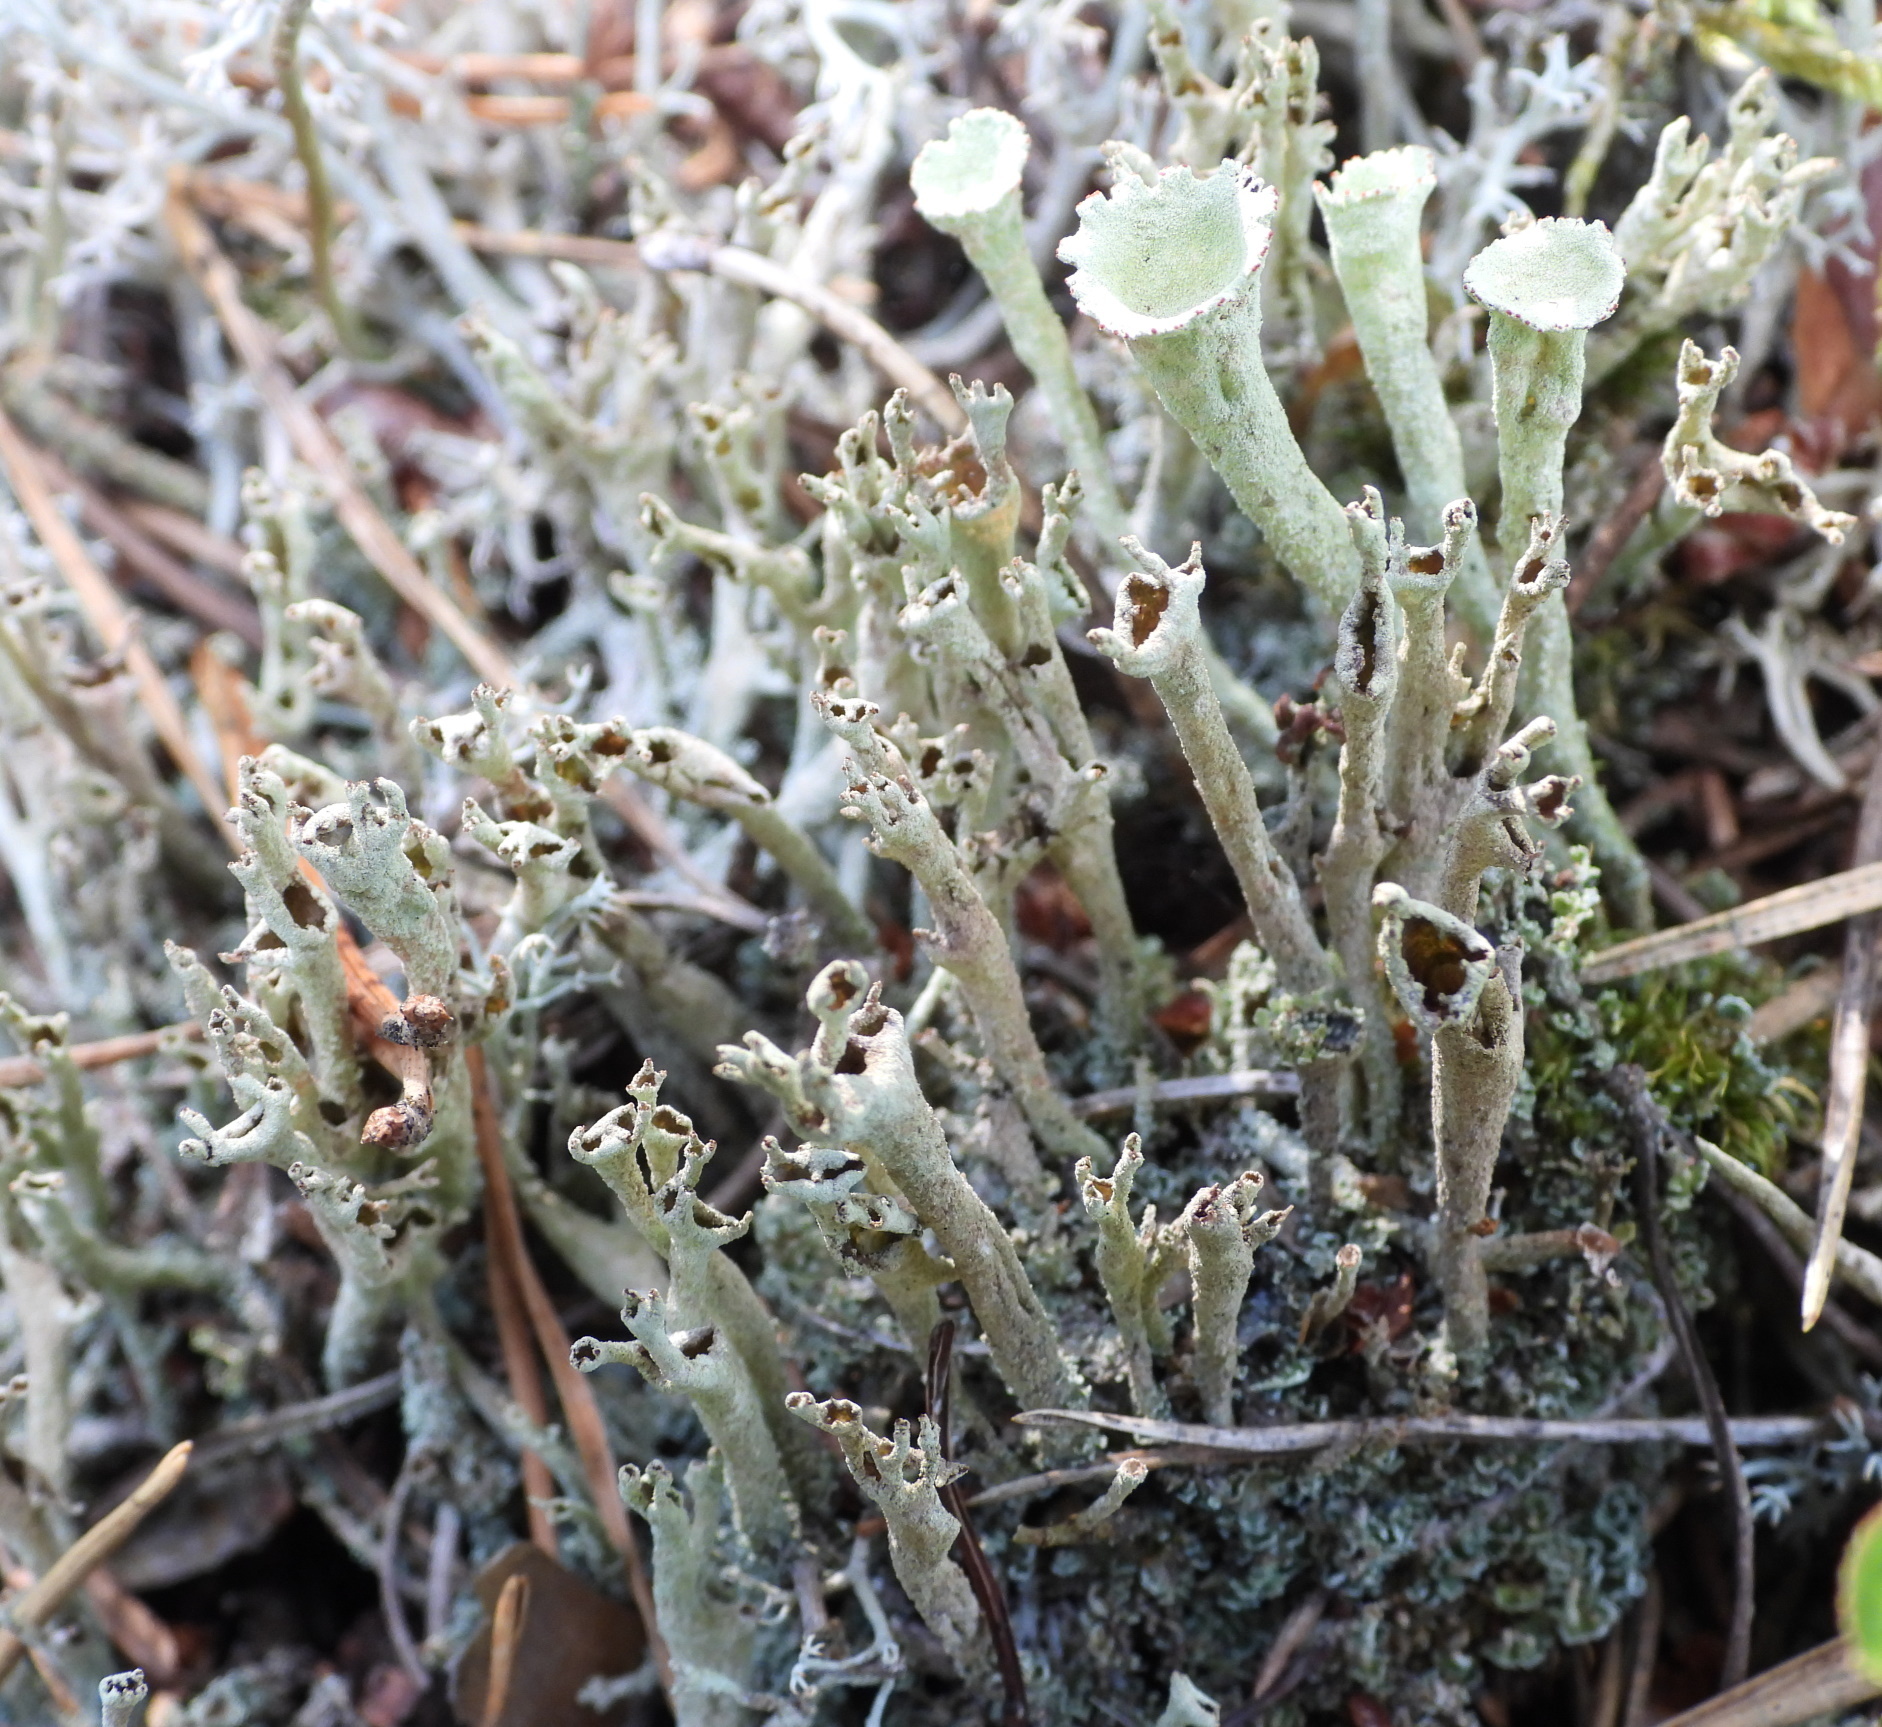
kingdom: Fungi
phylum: Ascomycota
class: Lecanoromycetes
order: Lecanorales
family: Cladoniaceae
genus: Cladonia
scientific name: Cladonia cenotea
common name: Powdered funnel lichen
